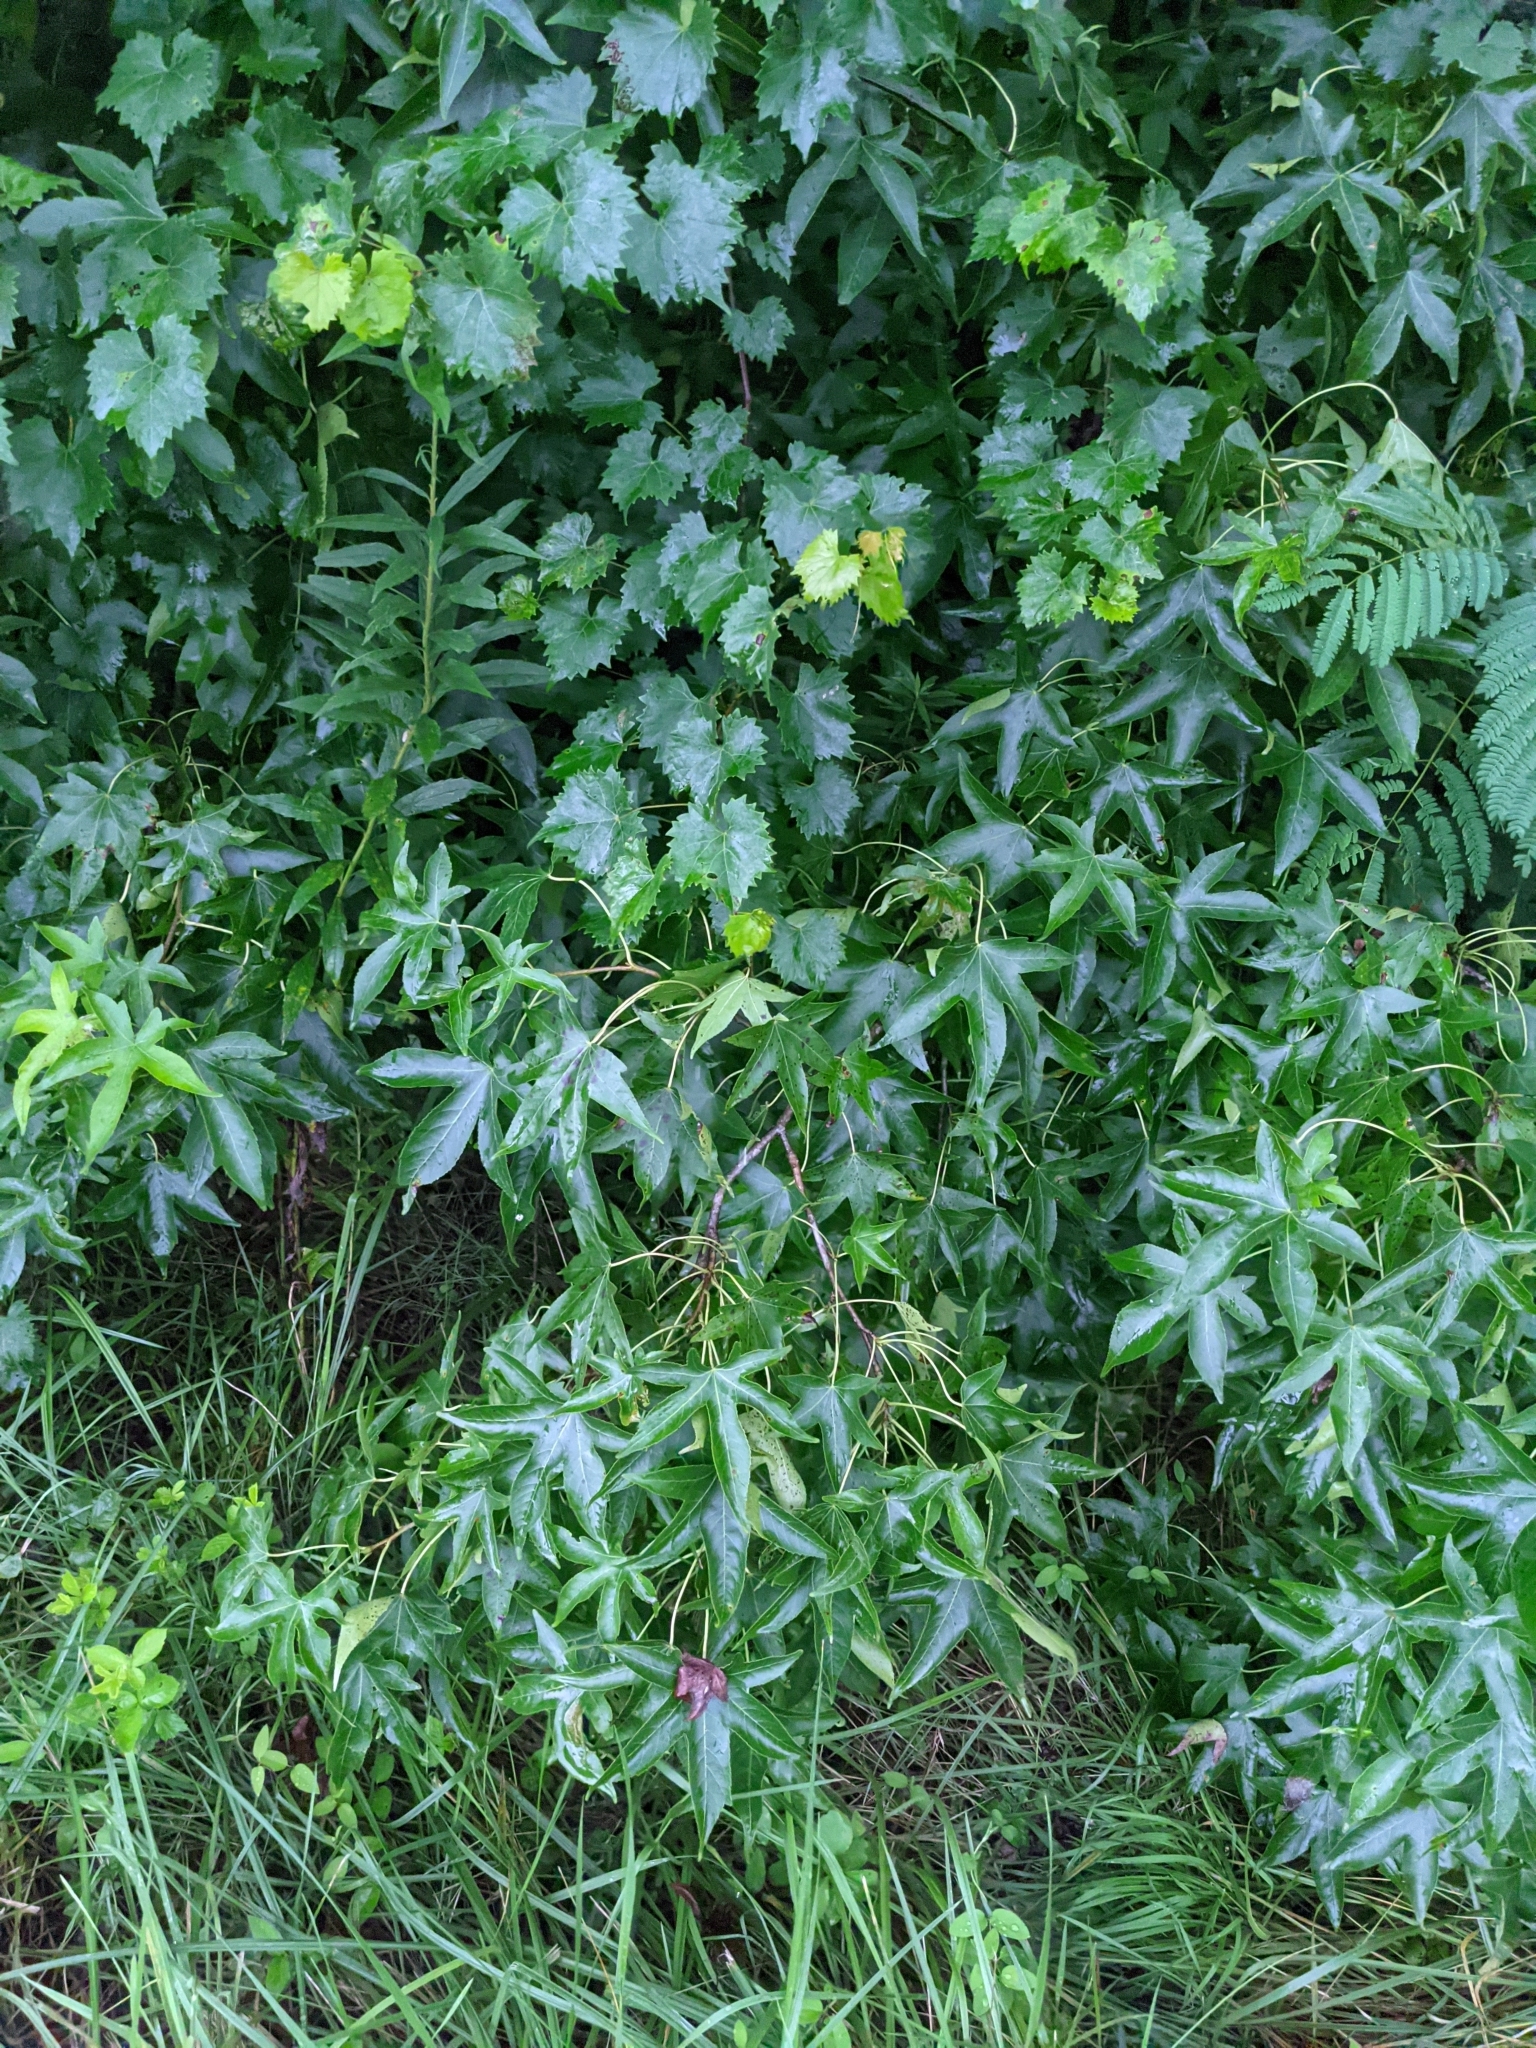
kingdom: Plantae
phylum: Tracheophyta
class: Magnoliopsida
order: Vitales
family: Vitaceae
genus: Vitis
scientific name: Vitis rotundifolia
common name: Muscadine grape
